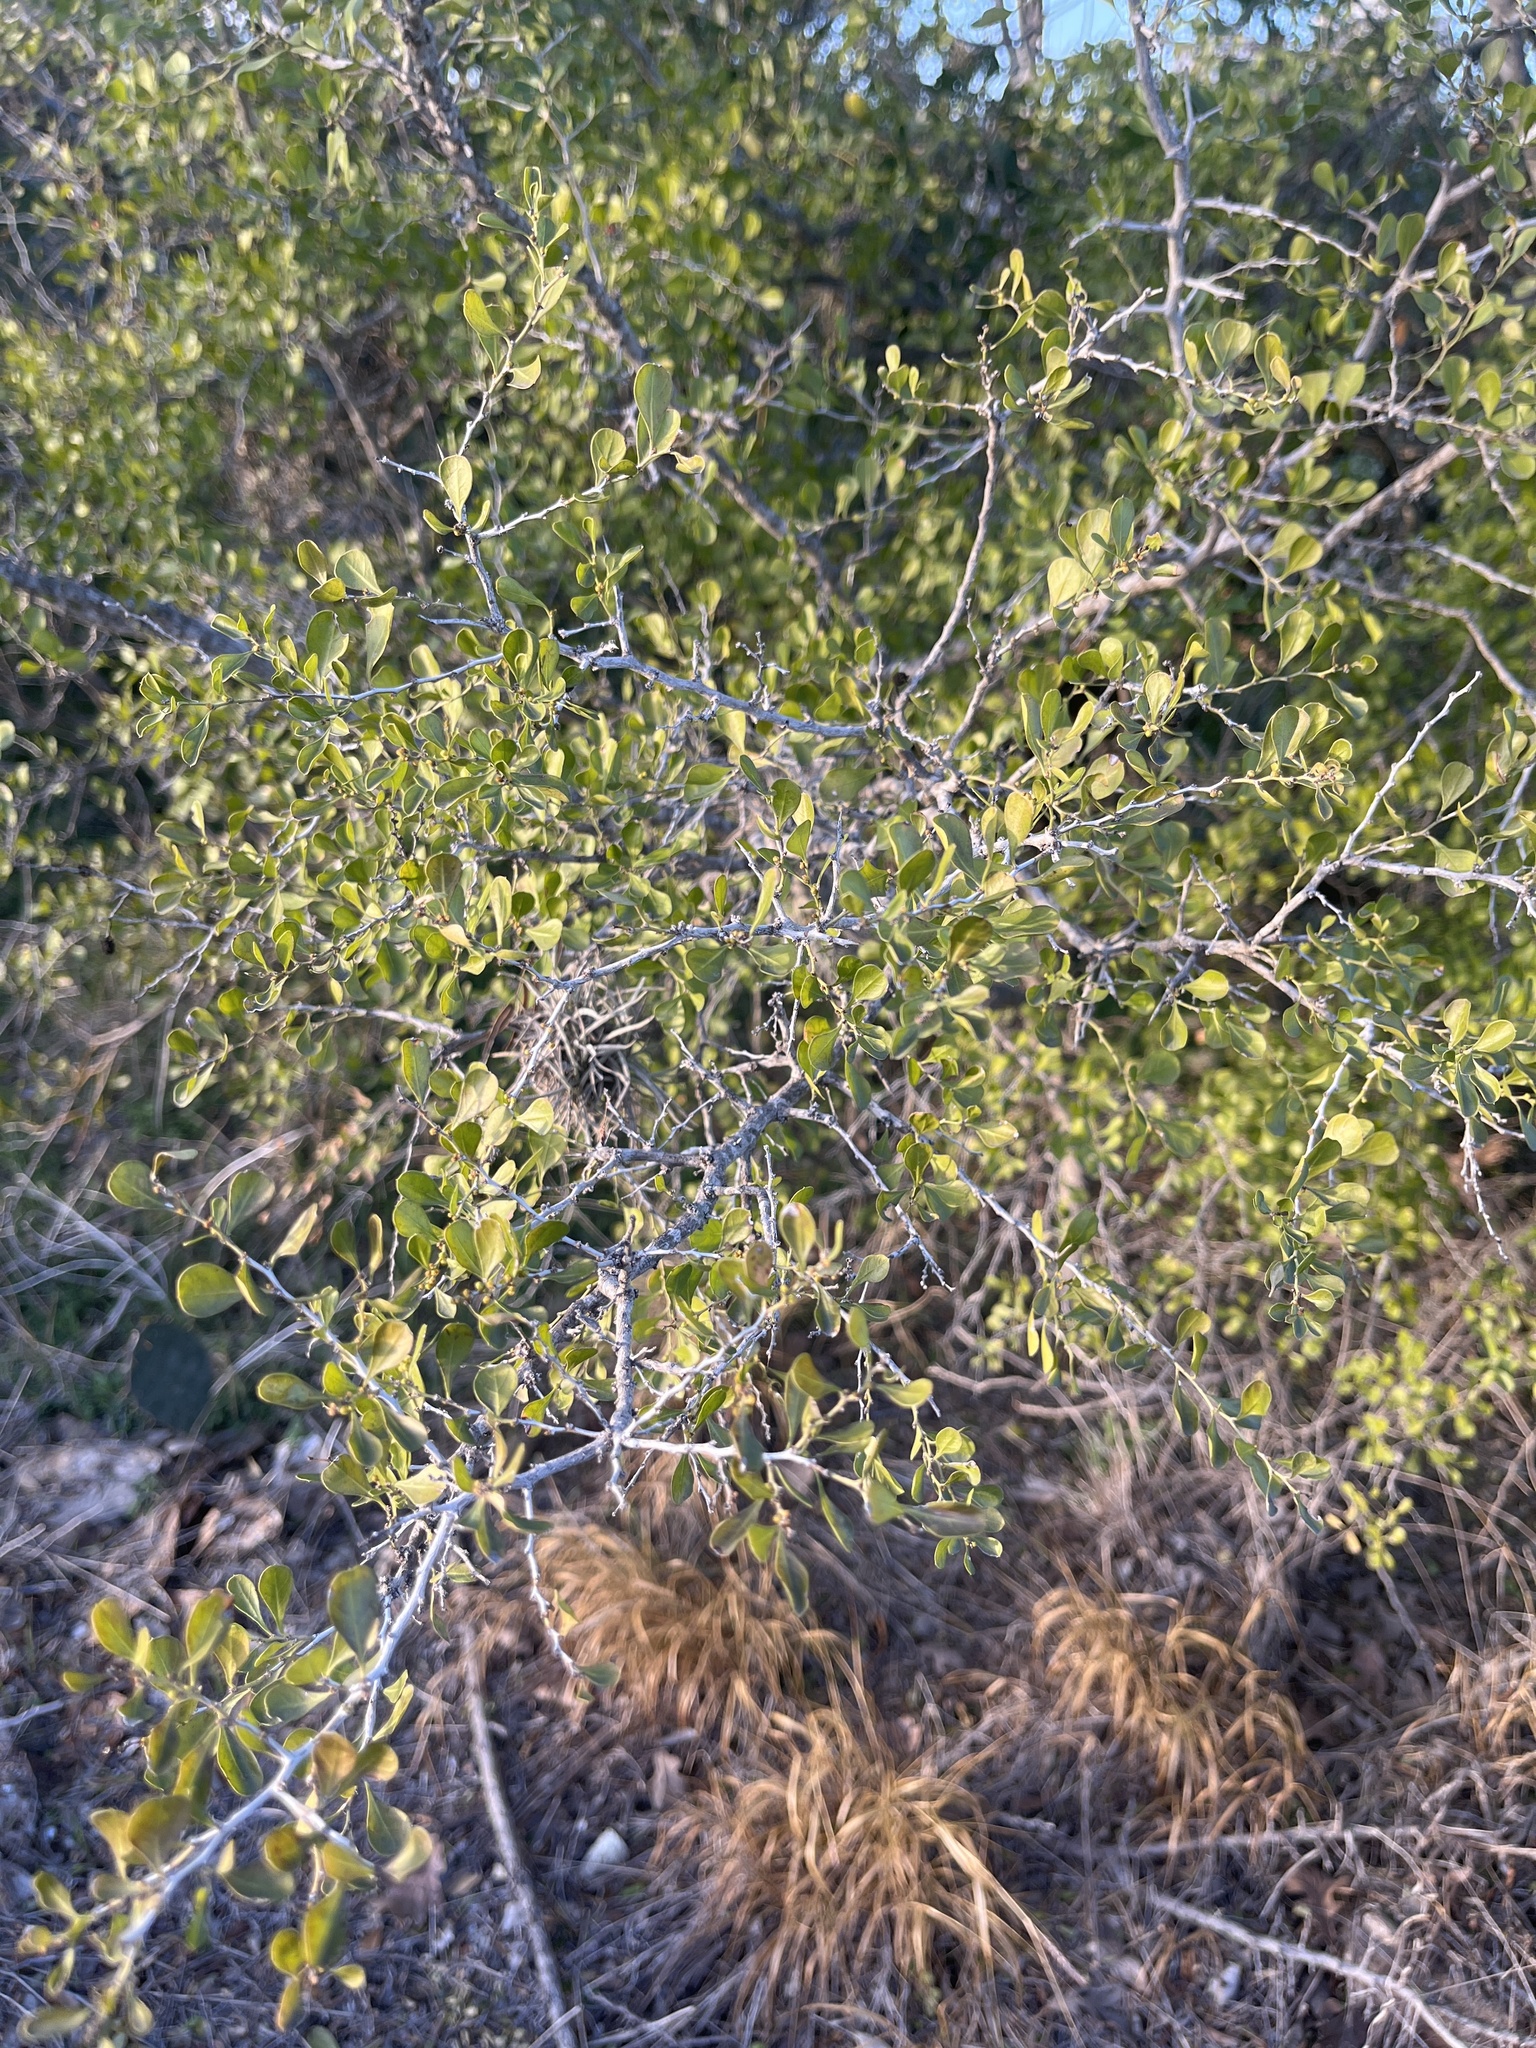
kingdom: Plantae
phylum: Tracheophyta
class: Magnoliopsida
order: Rosales
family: Rhamnaceae
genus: Condalia
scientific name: Condalia hookeri
